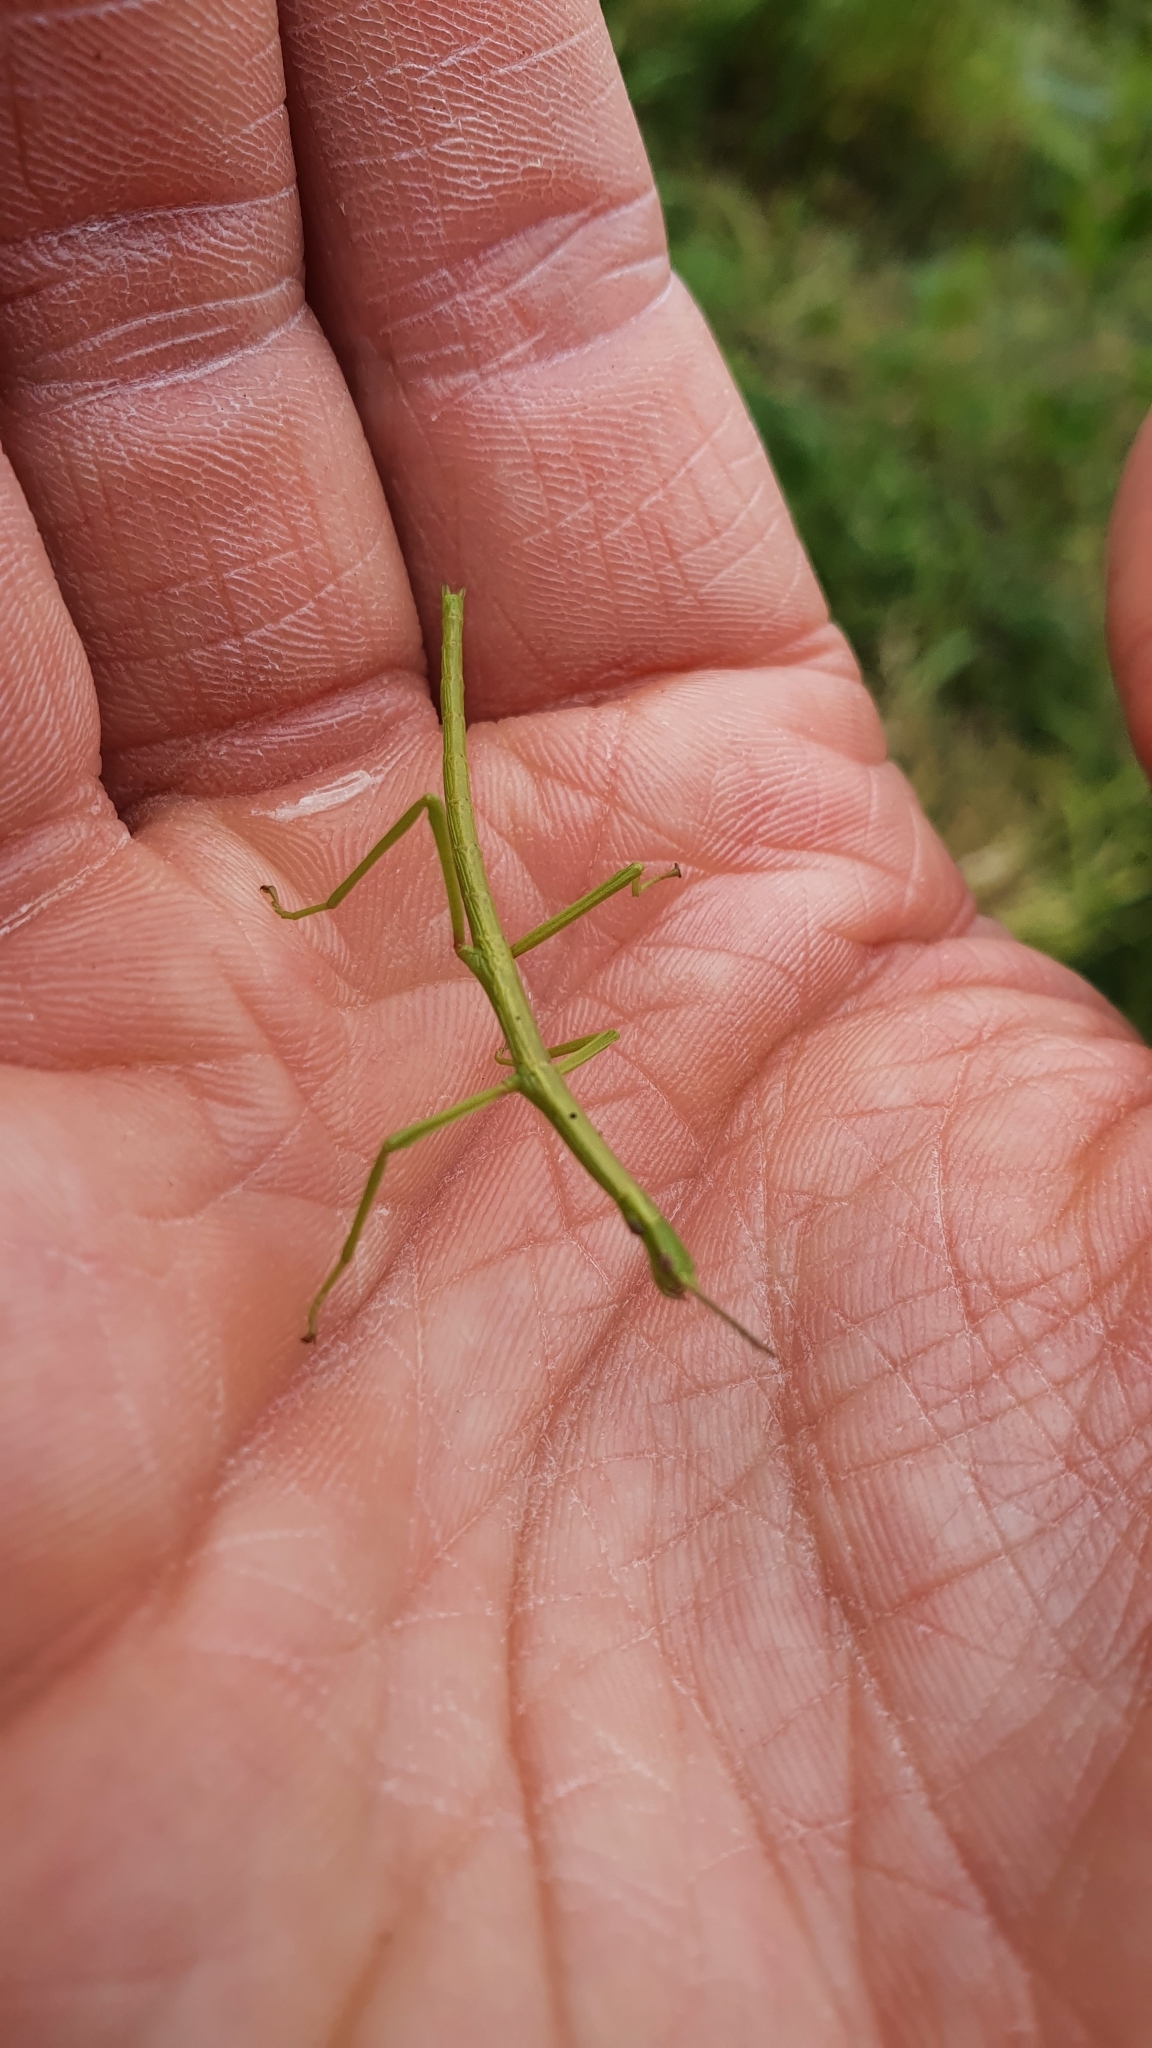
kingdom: Animalia
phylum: Arthropoda
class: Insecta
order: Phasmida
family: Phasmatidae
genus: Clitarchus
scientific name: Clitarchus hookeri
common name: Smooth stick insect
